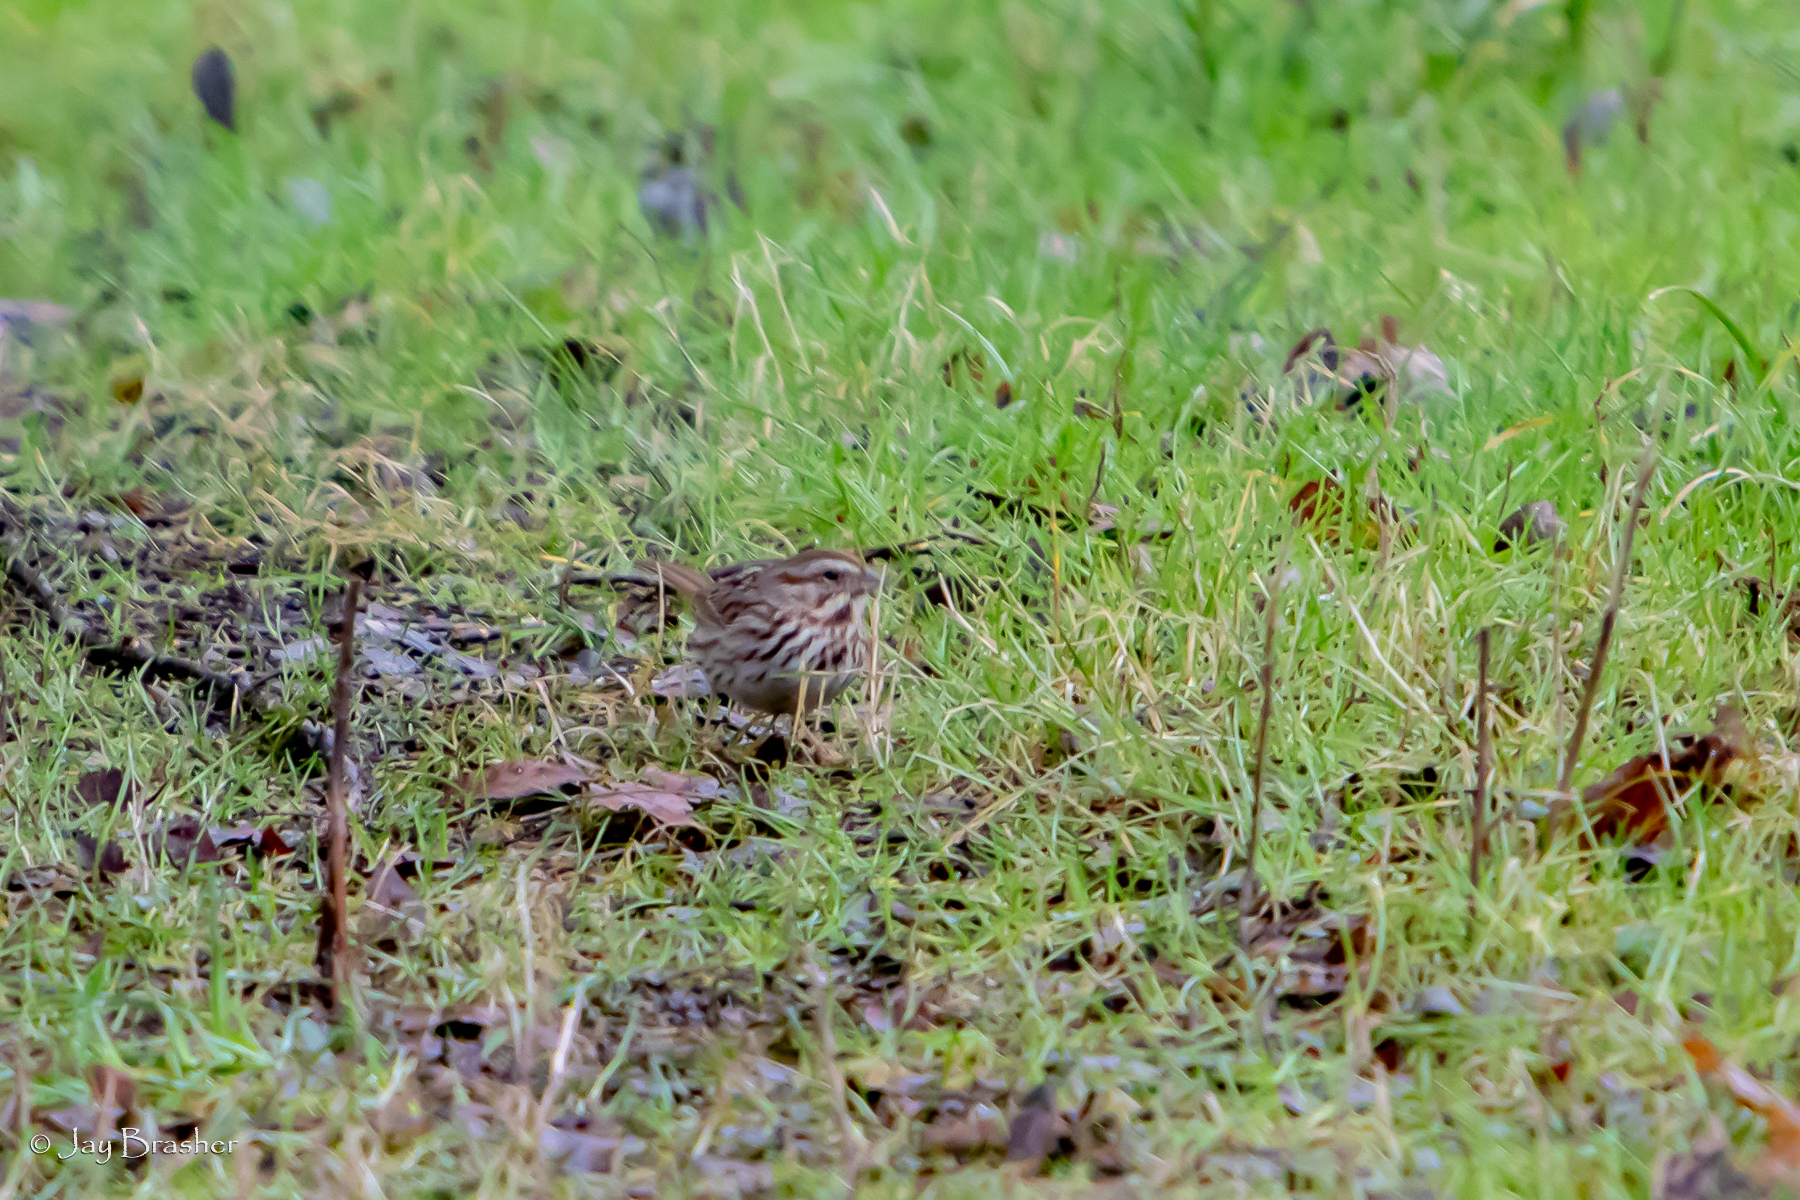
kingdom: Animalia
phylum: Chordata
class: Aves
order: Passeriformes
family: Passerellidae
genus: Melospiza
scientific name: Melospiza melodia
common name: Song sparrow
